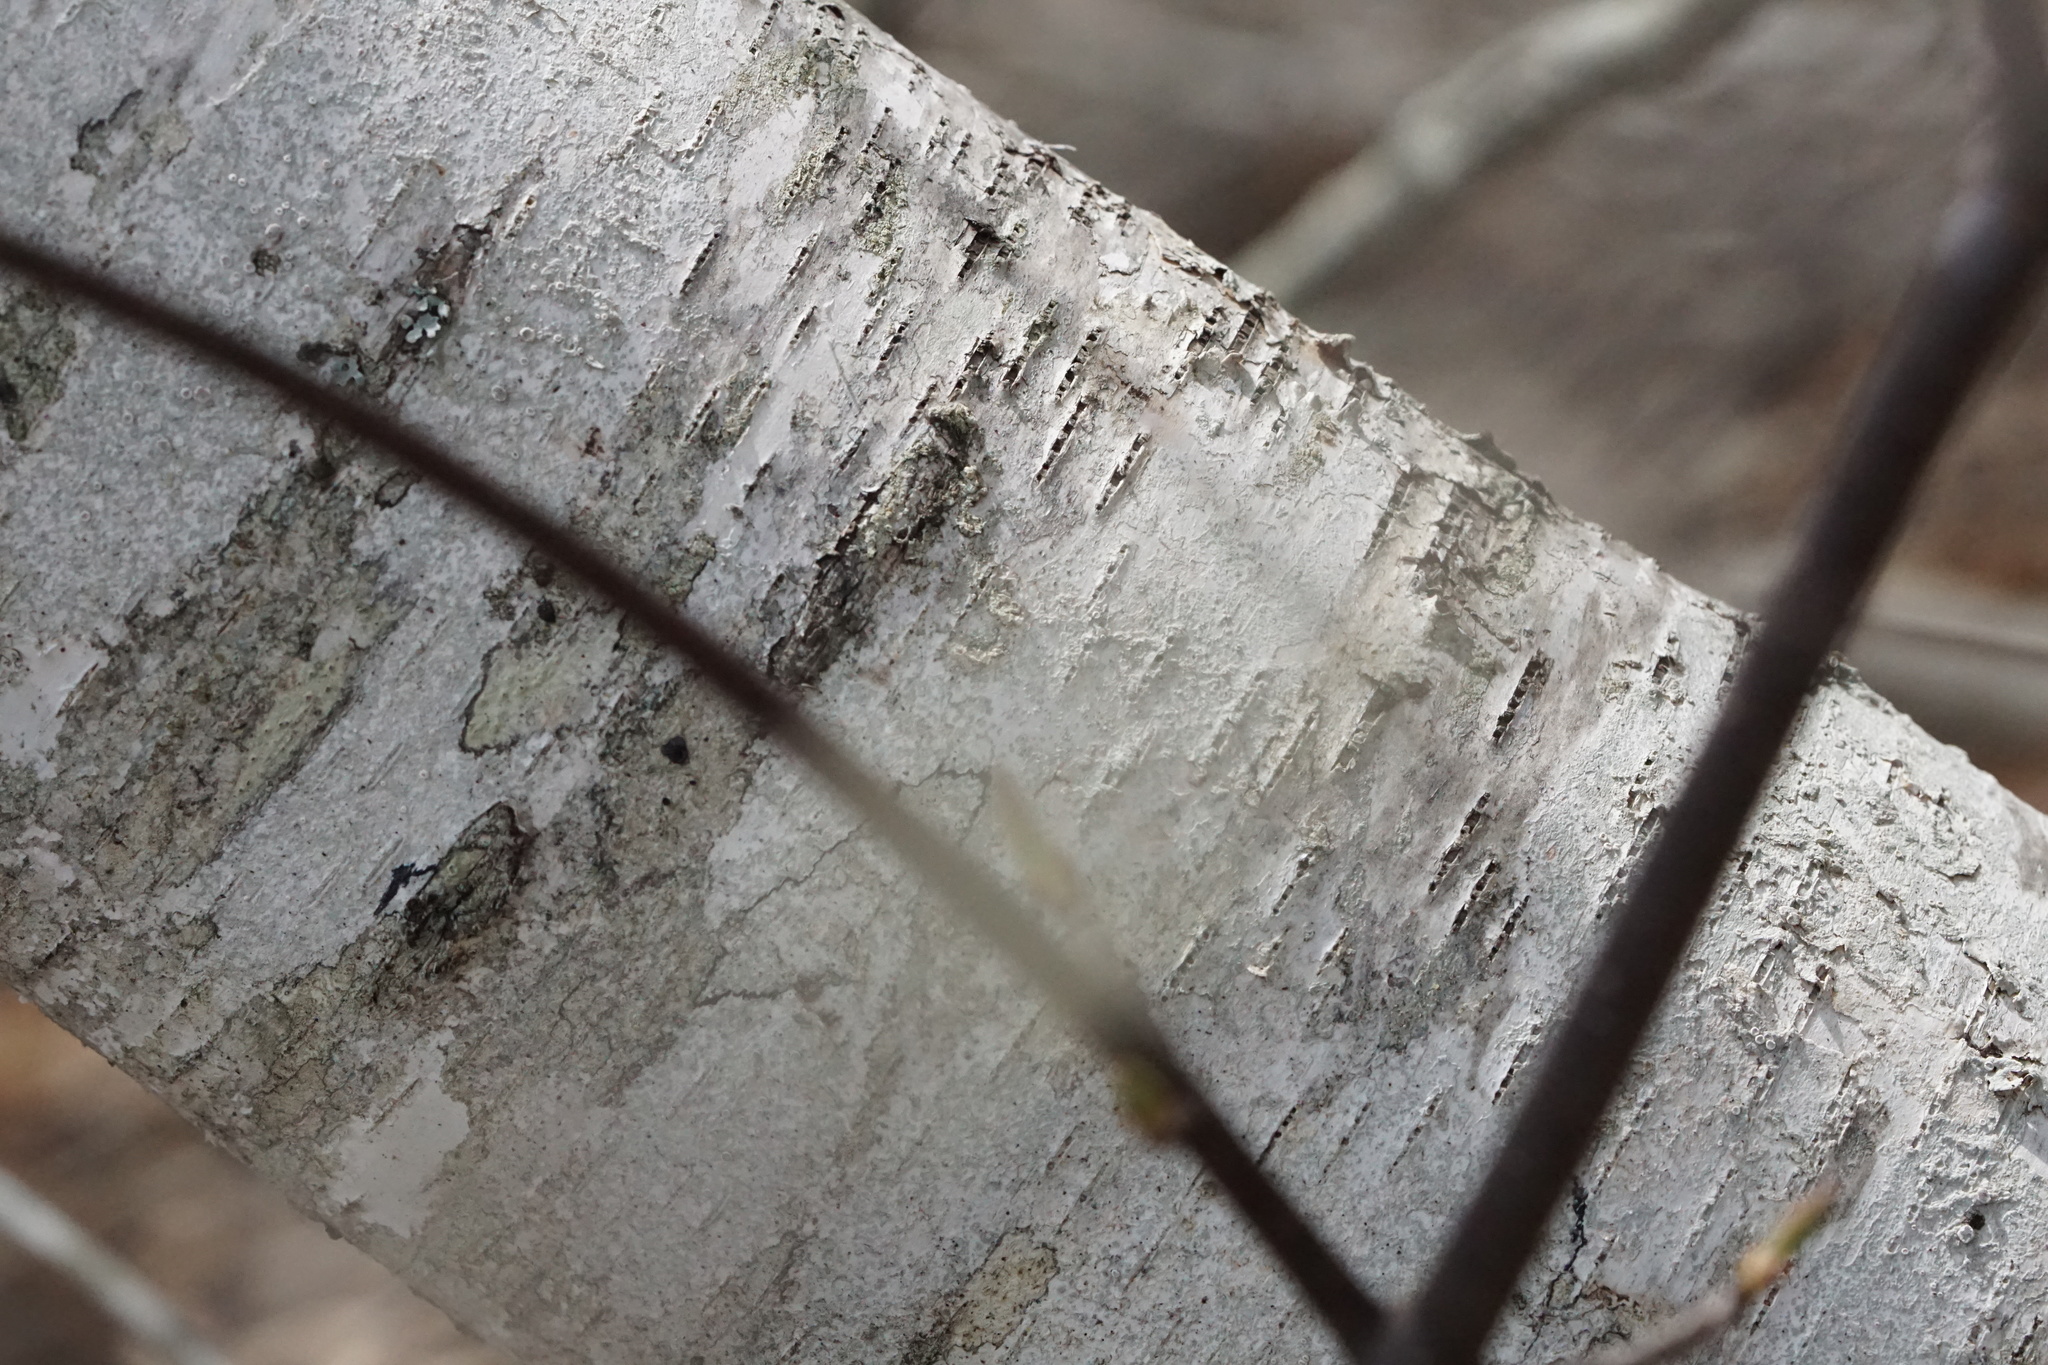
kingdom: Plantae
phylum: Tracheophyta
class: Magnoliopsida
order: Fagales
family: Betulaceae
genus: Betula
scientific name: Betula populifolia
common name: Fire birch
